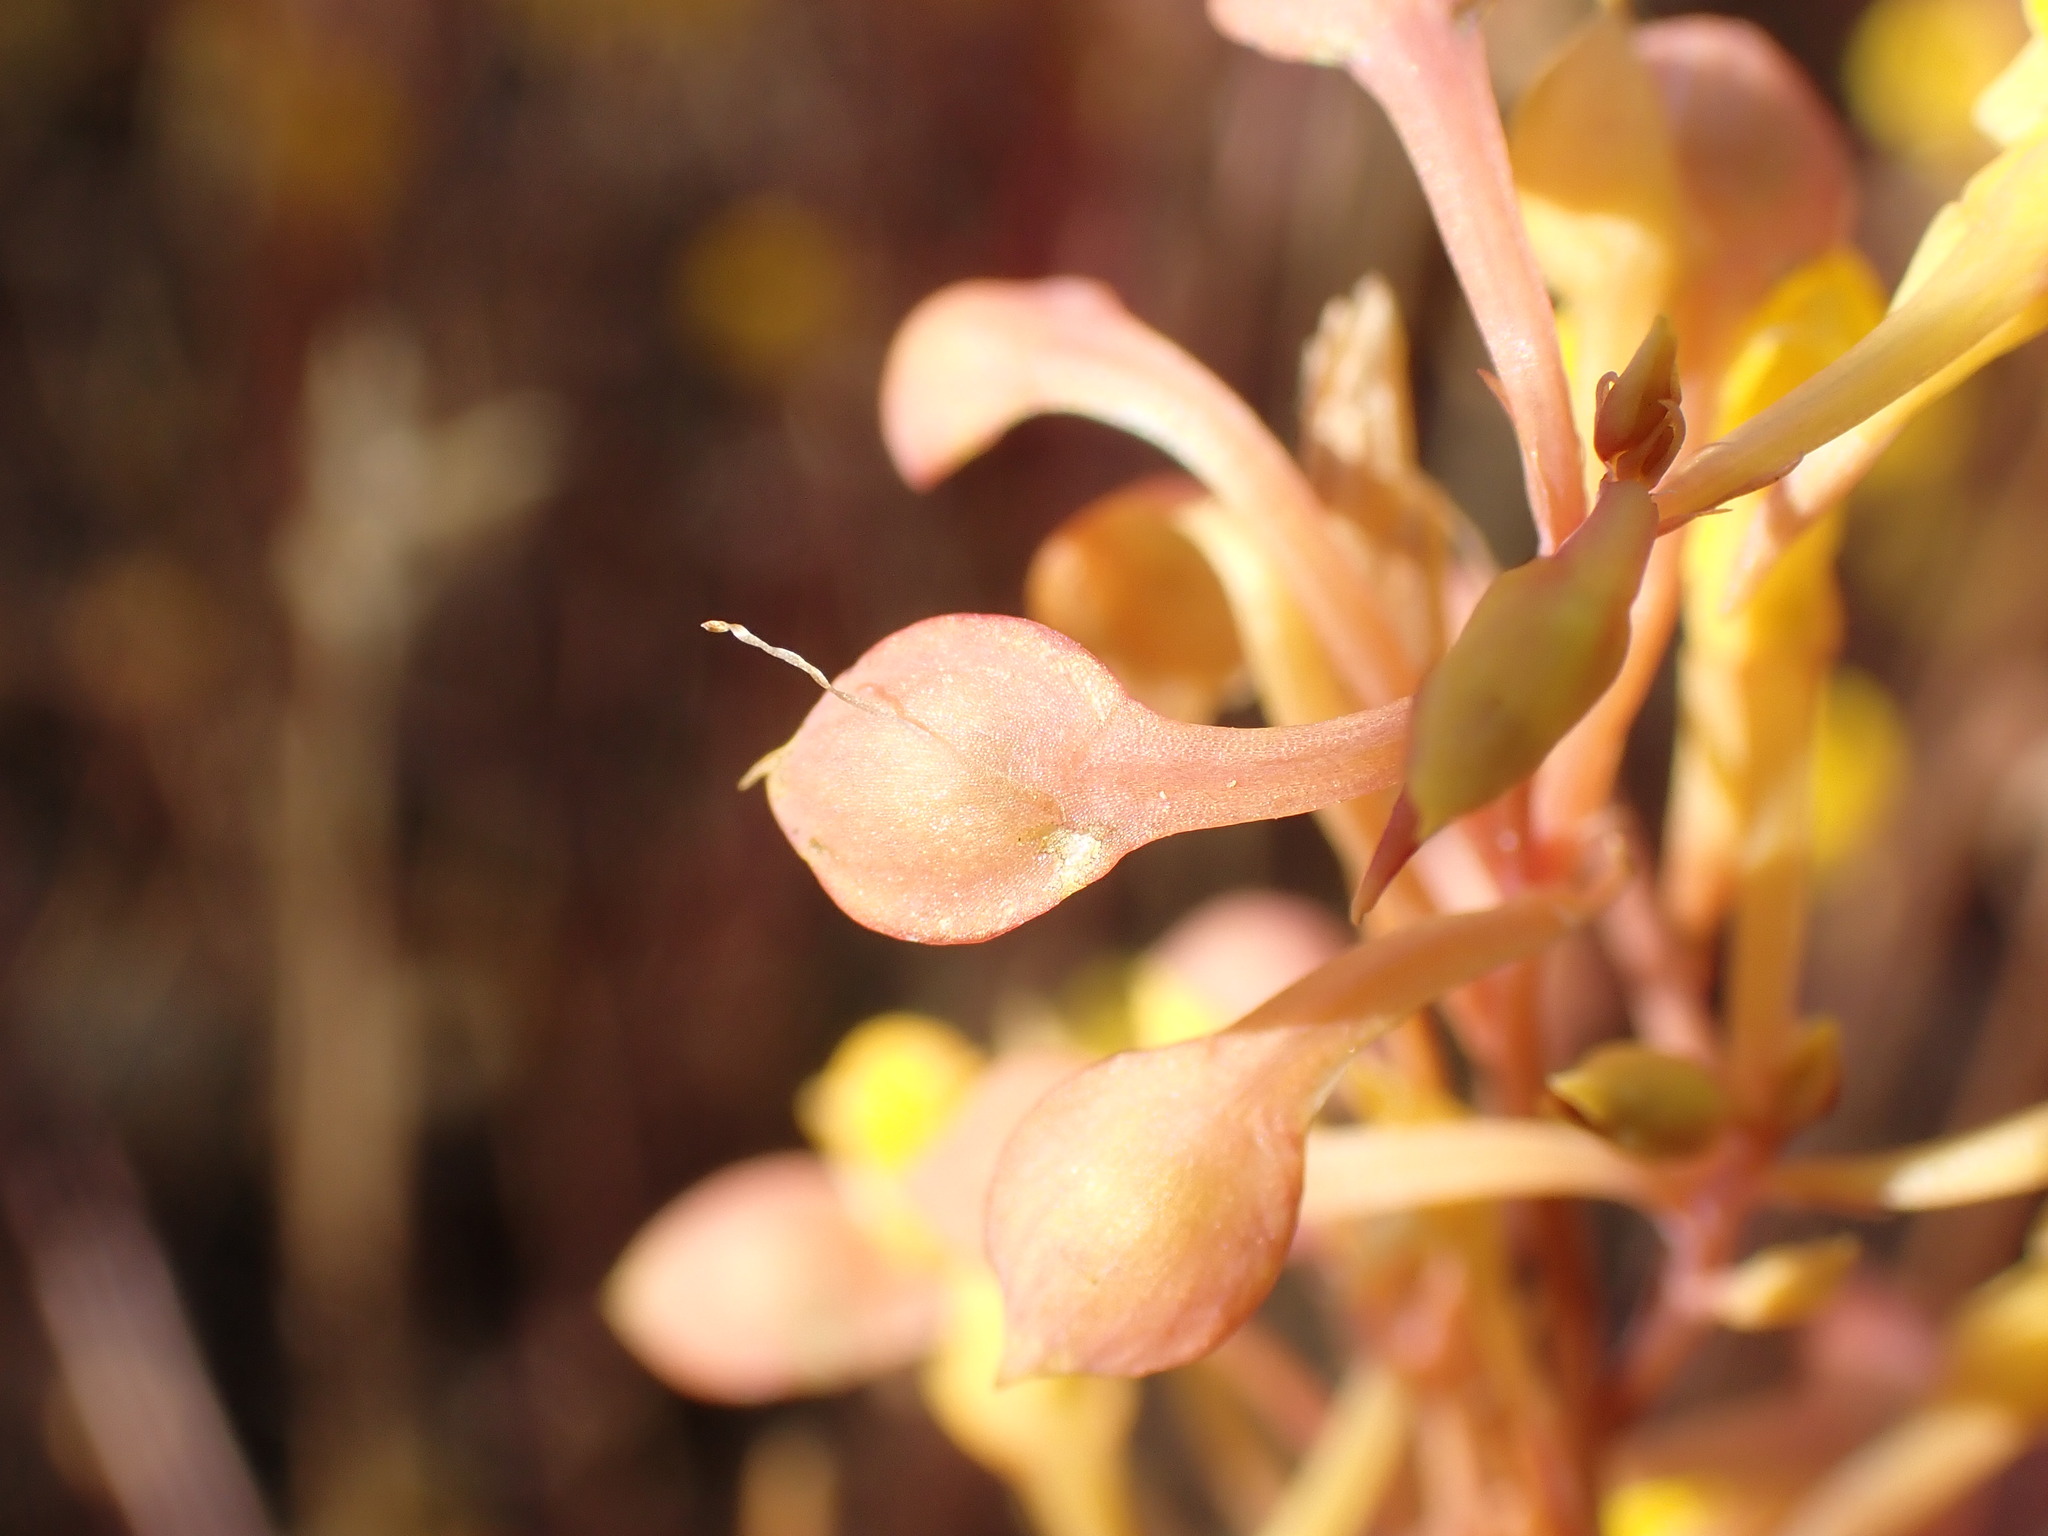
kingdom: Plantae
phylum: Tracheophyta
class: Magnoliopsida
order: Lamiales
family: Lentibulariaceae
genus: Utricularia
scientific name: Utricularia odorata
